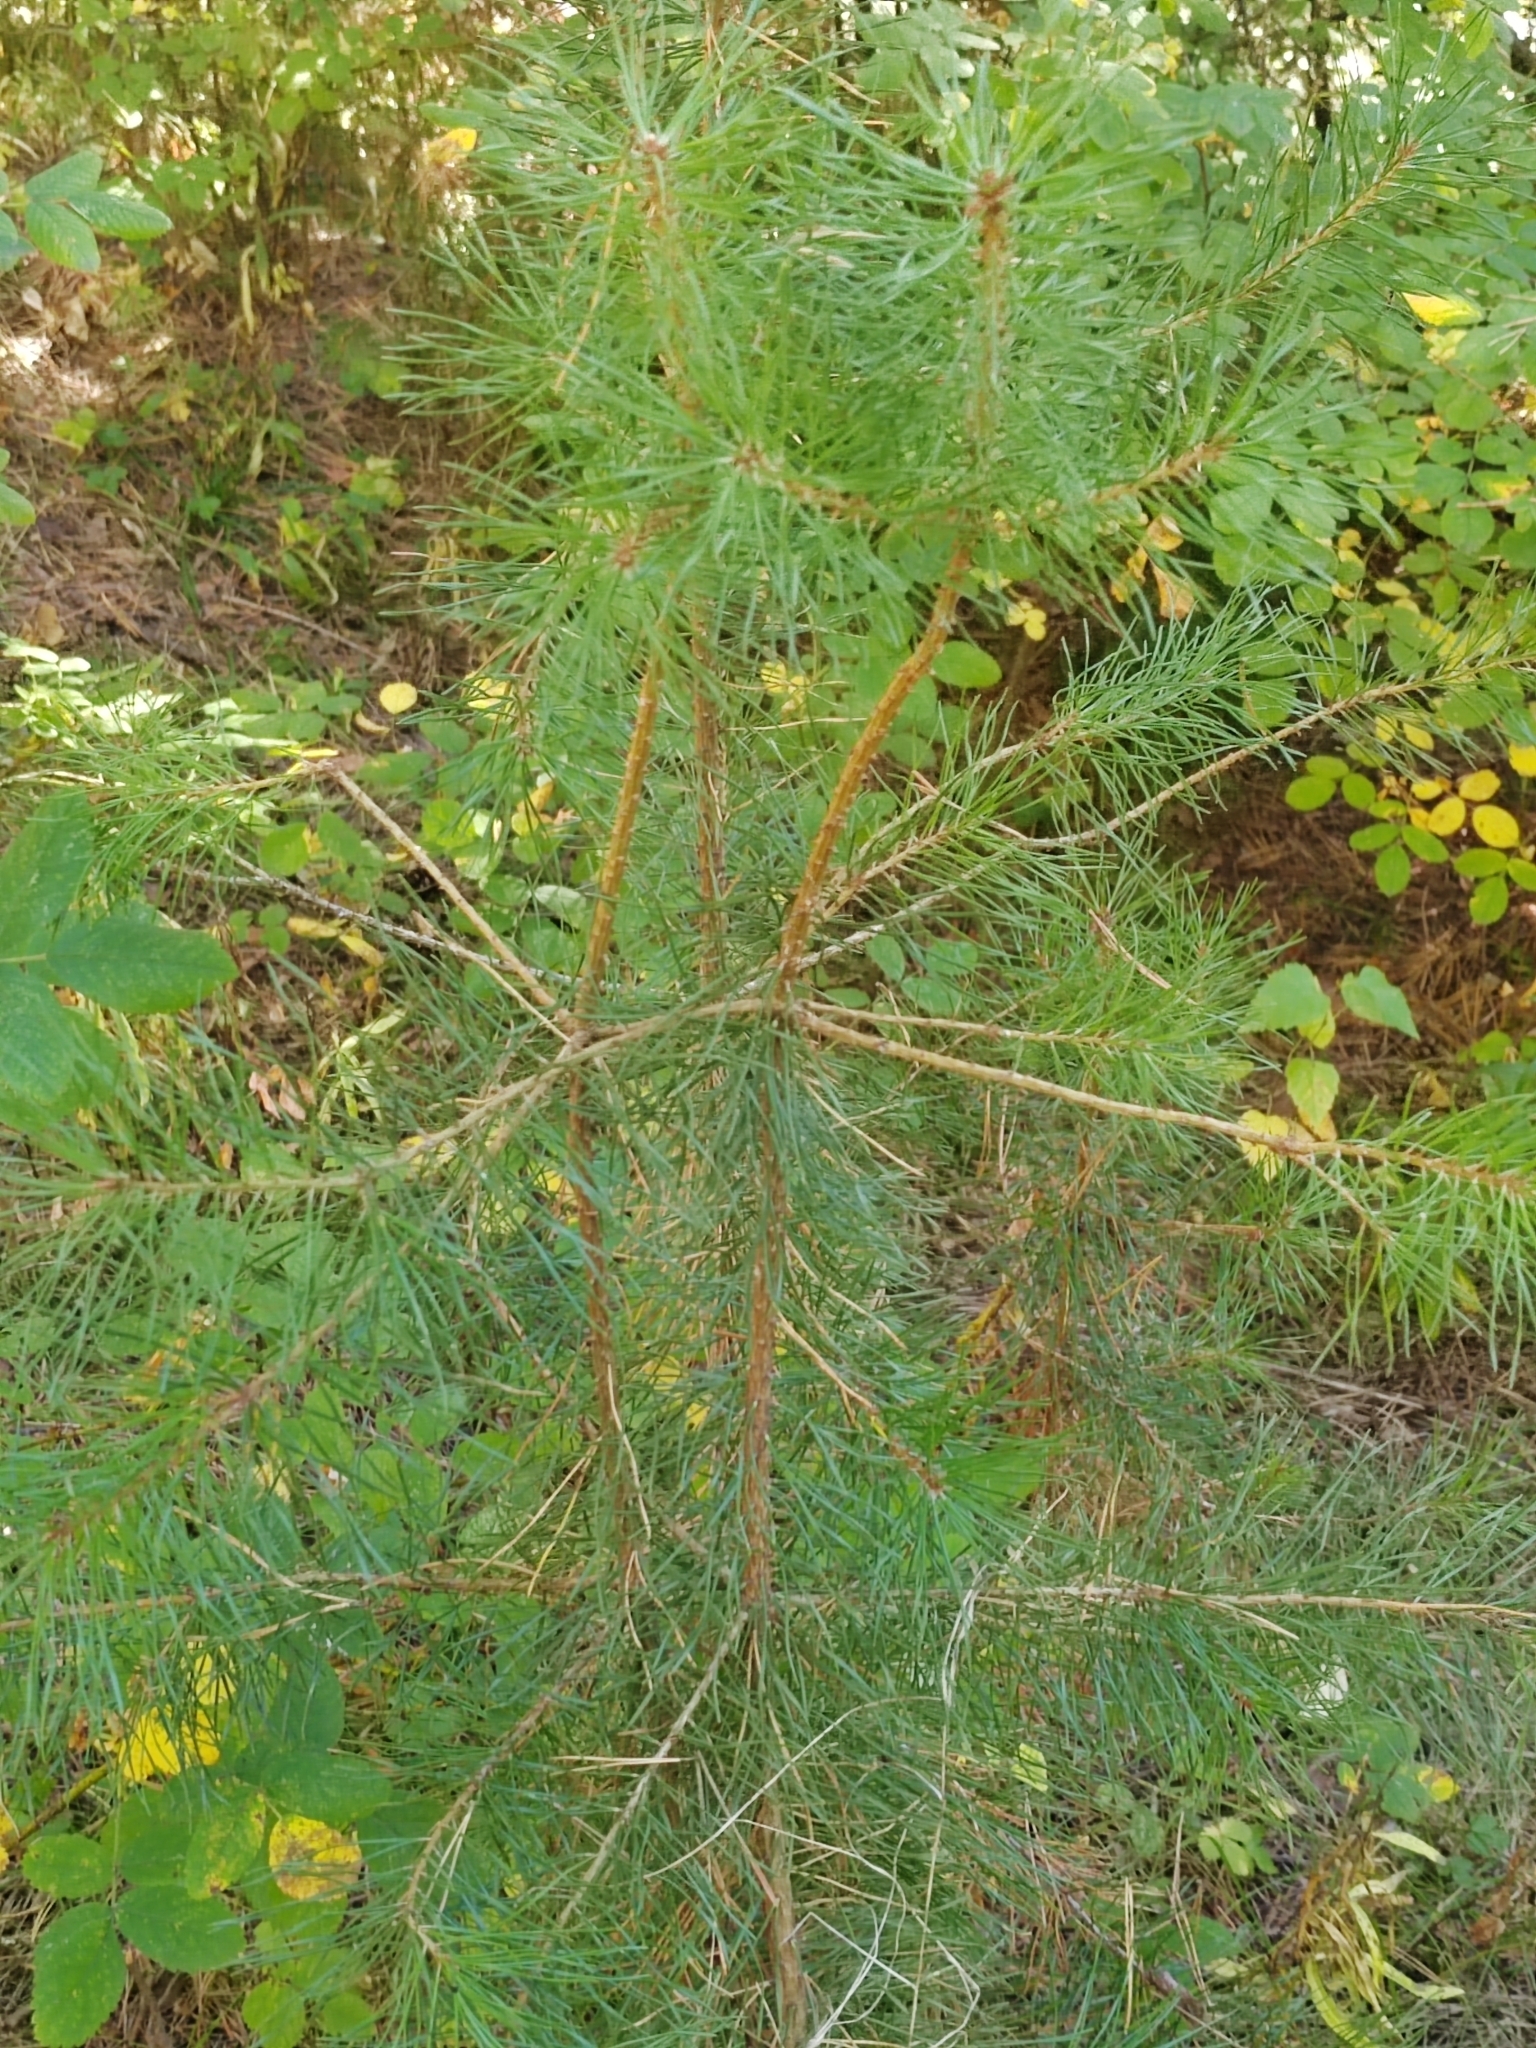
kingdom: Plantae
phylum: Tracheophyta
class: Pinopsida
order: Pinales
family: Pinaceae
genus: Pinus
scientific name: Pinus sylvestris
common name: Scots pine
